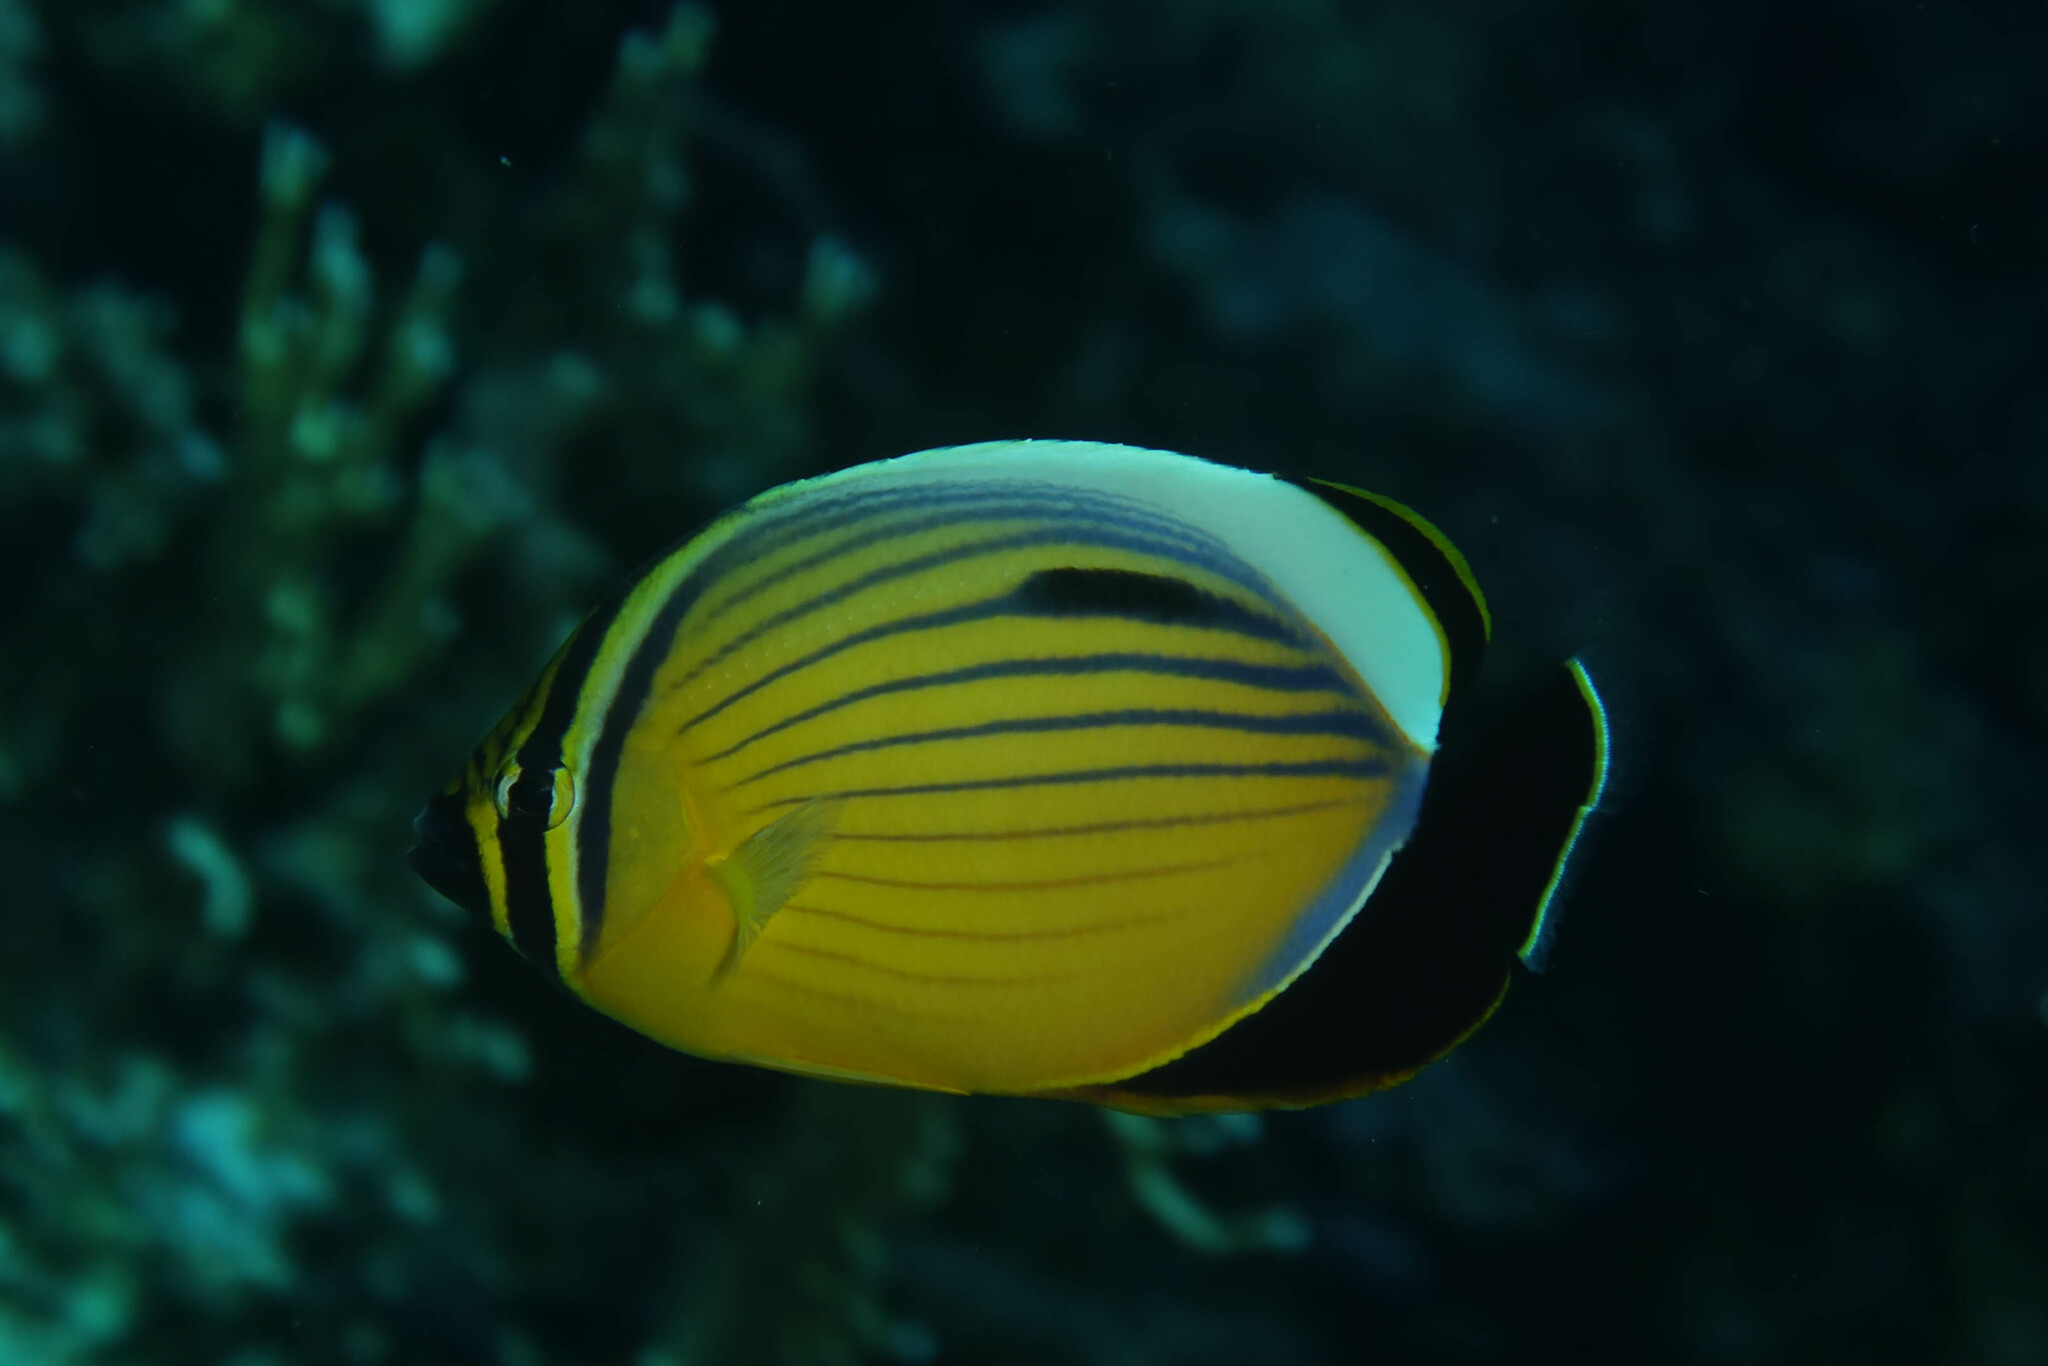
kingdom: Animalia
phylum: Chordata
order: Perciformes
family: Chaetodontidae
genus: Chaetodon
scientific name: Chaetodon austriacus
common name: Exquisite butterflyfish
